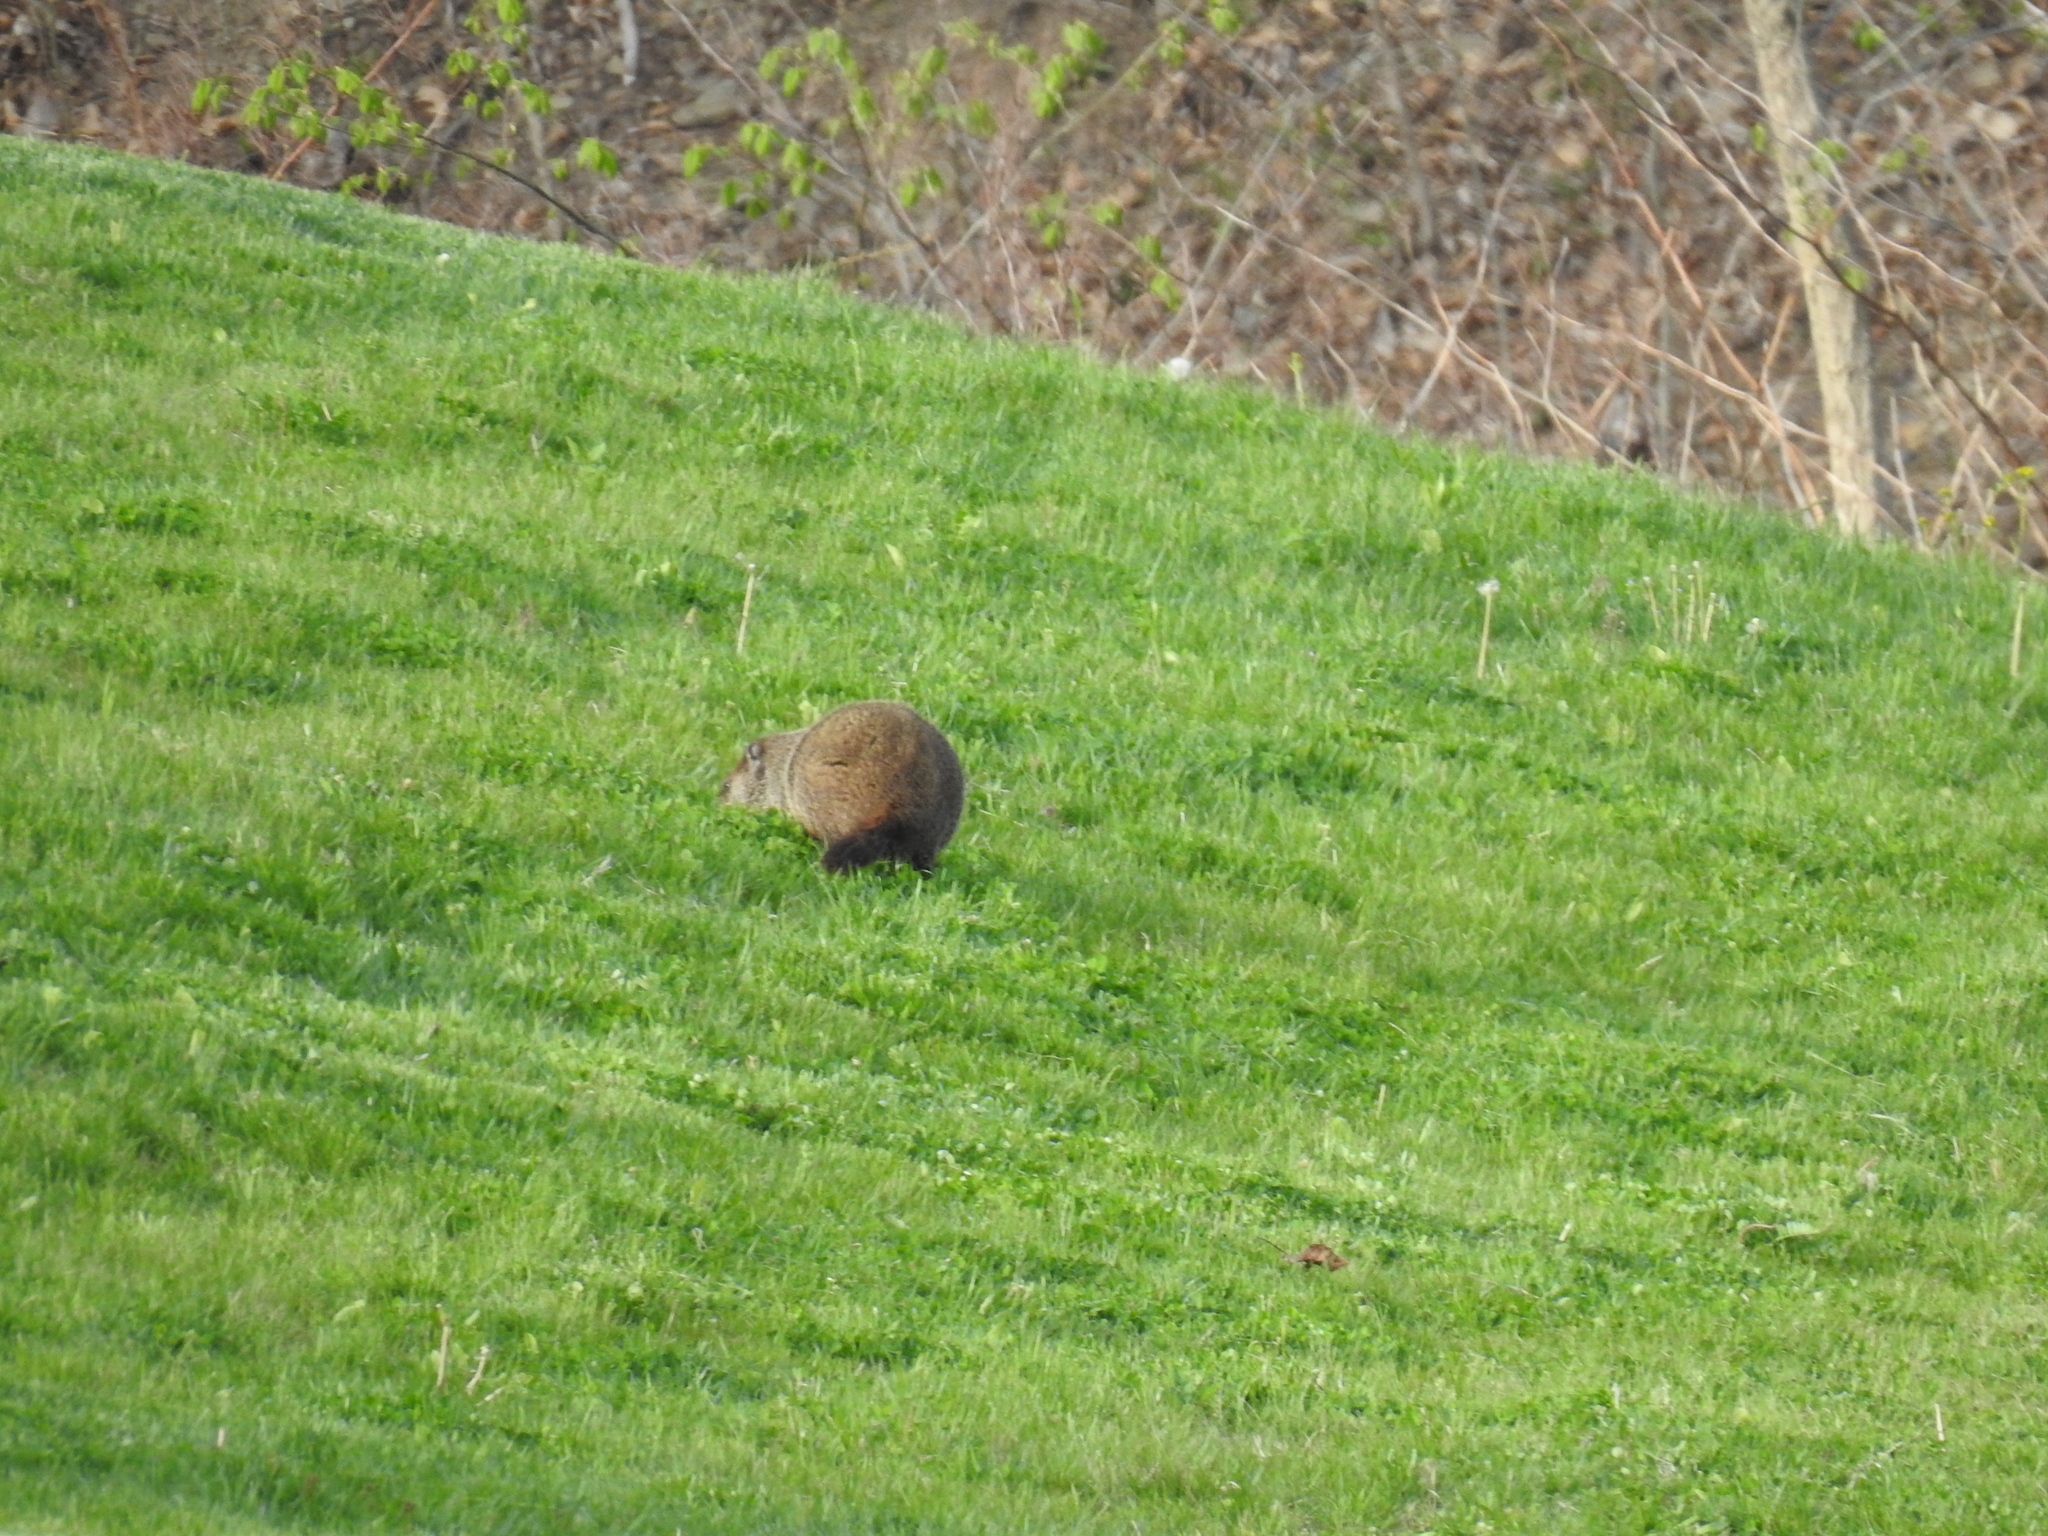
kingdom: Animalia
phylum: Chordata
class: Mammalia
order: Rodentia
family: Sciuridae
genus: Marmota
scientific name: Marmota monax
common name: Groundhog
